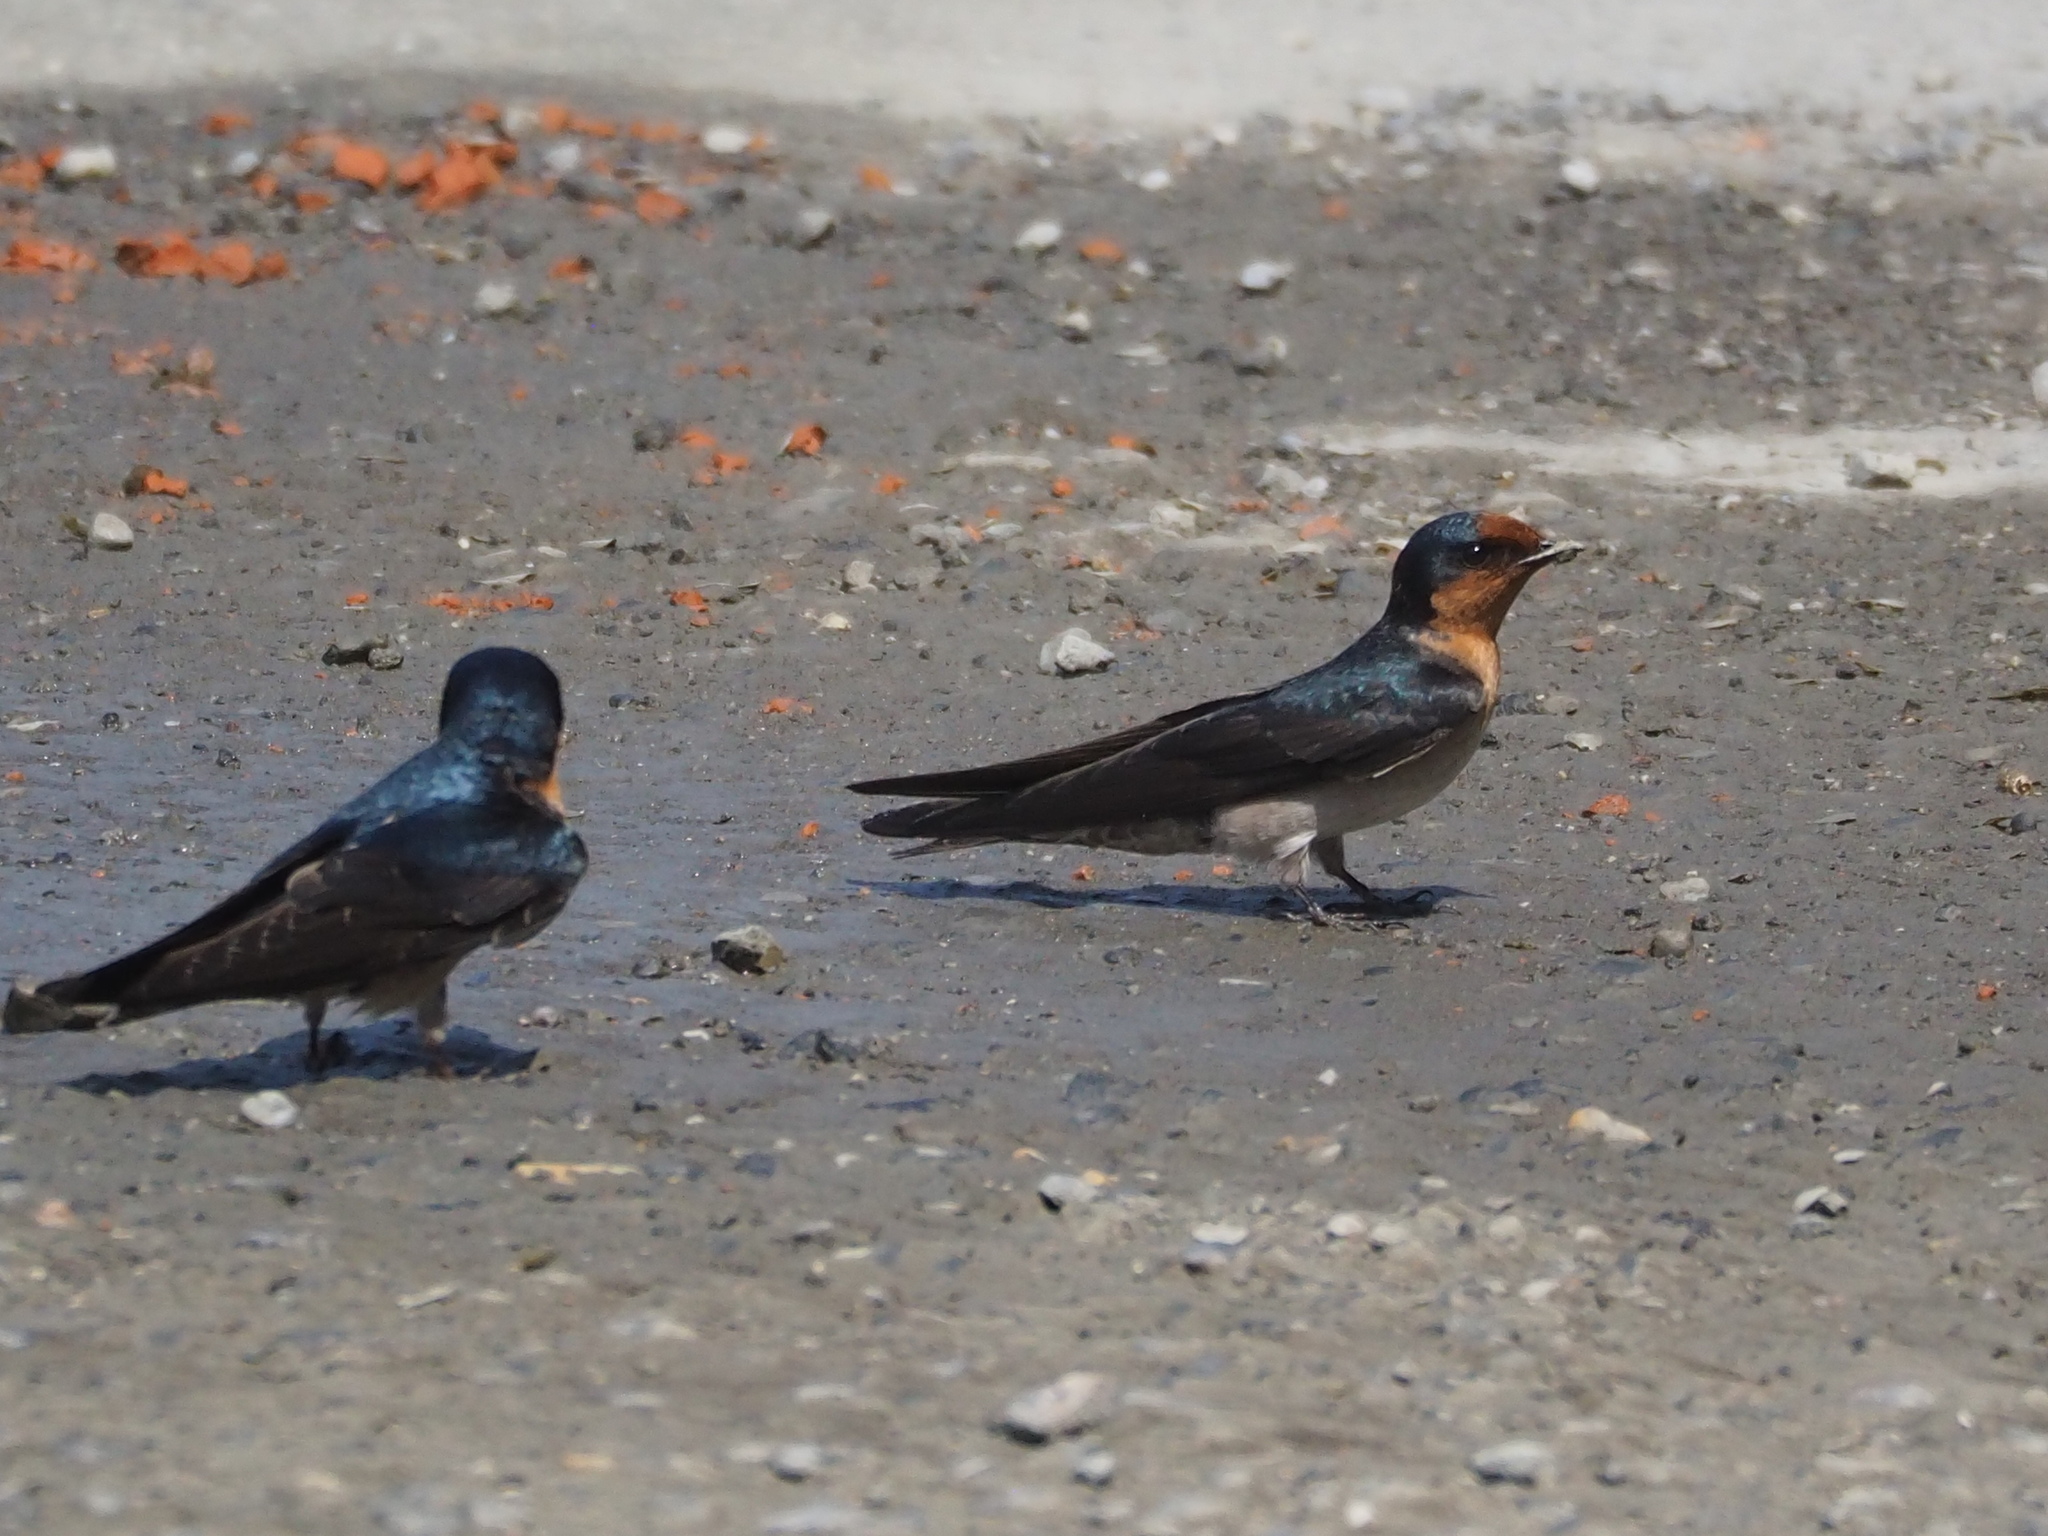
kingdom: Animalia
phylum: Chordata
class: Aves
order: Passeriformes
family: Hirundinidae
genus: Hirundo
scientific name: Hirundo tahitica
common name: Pacific swallow
